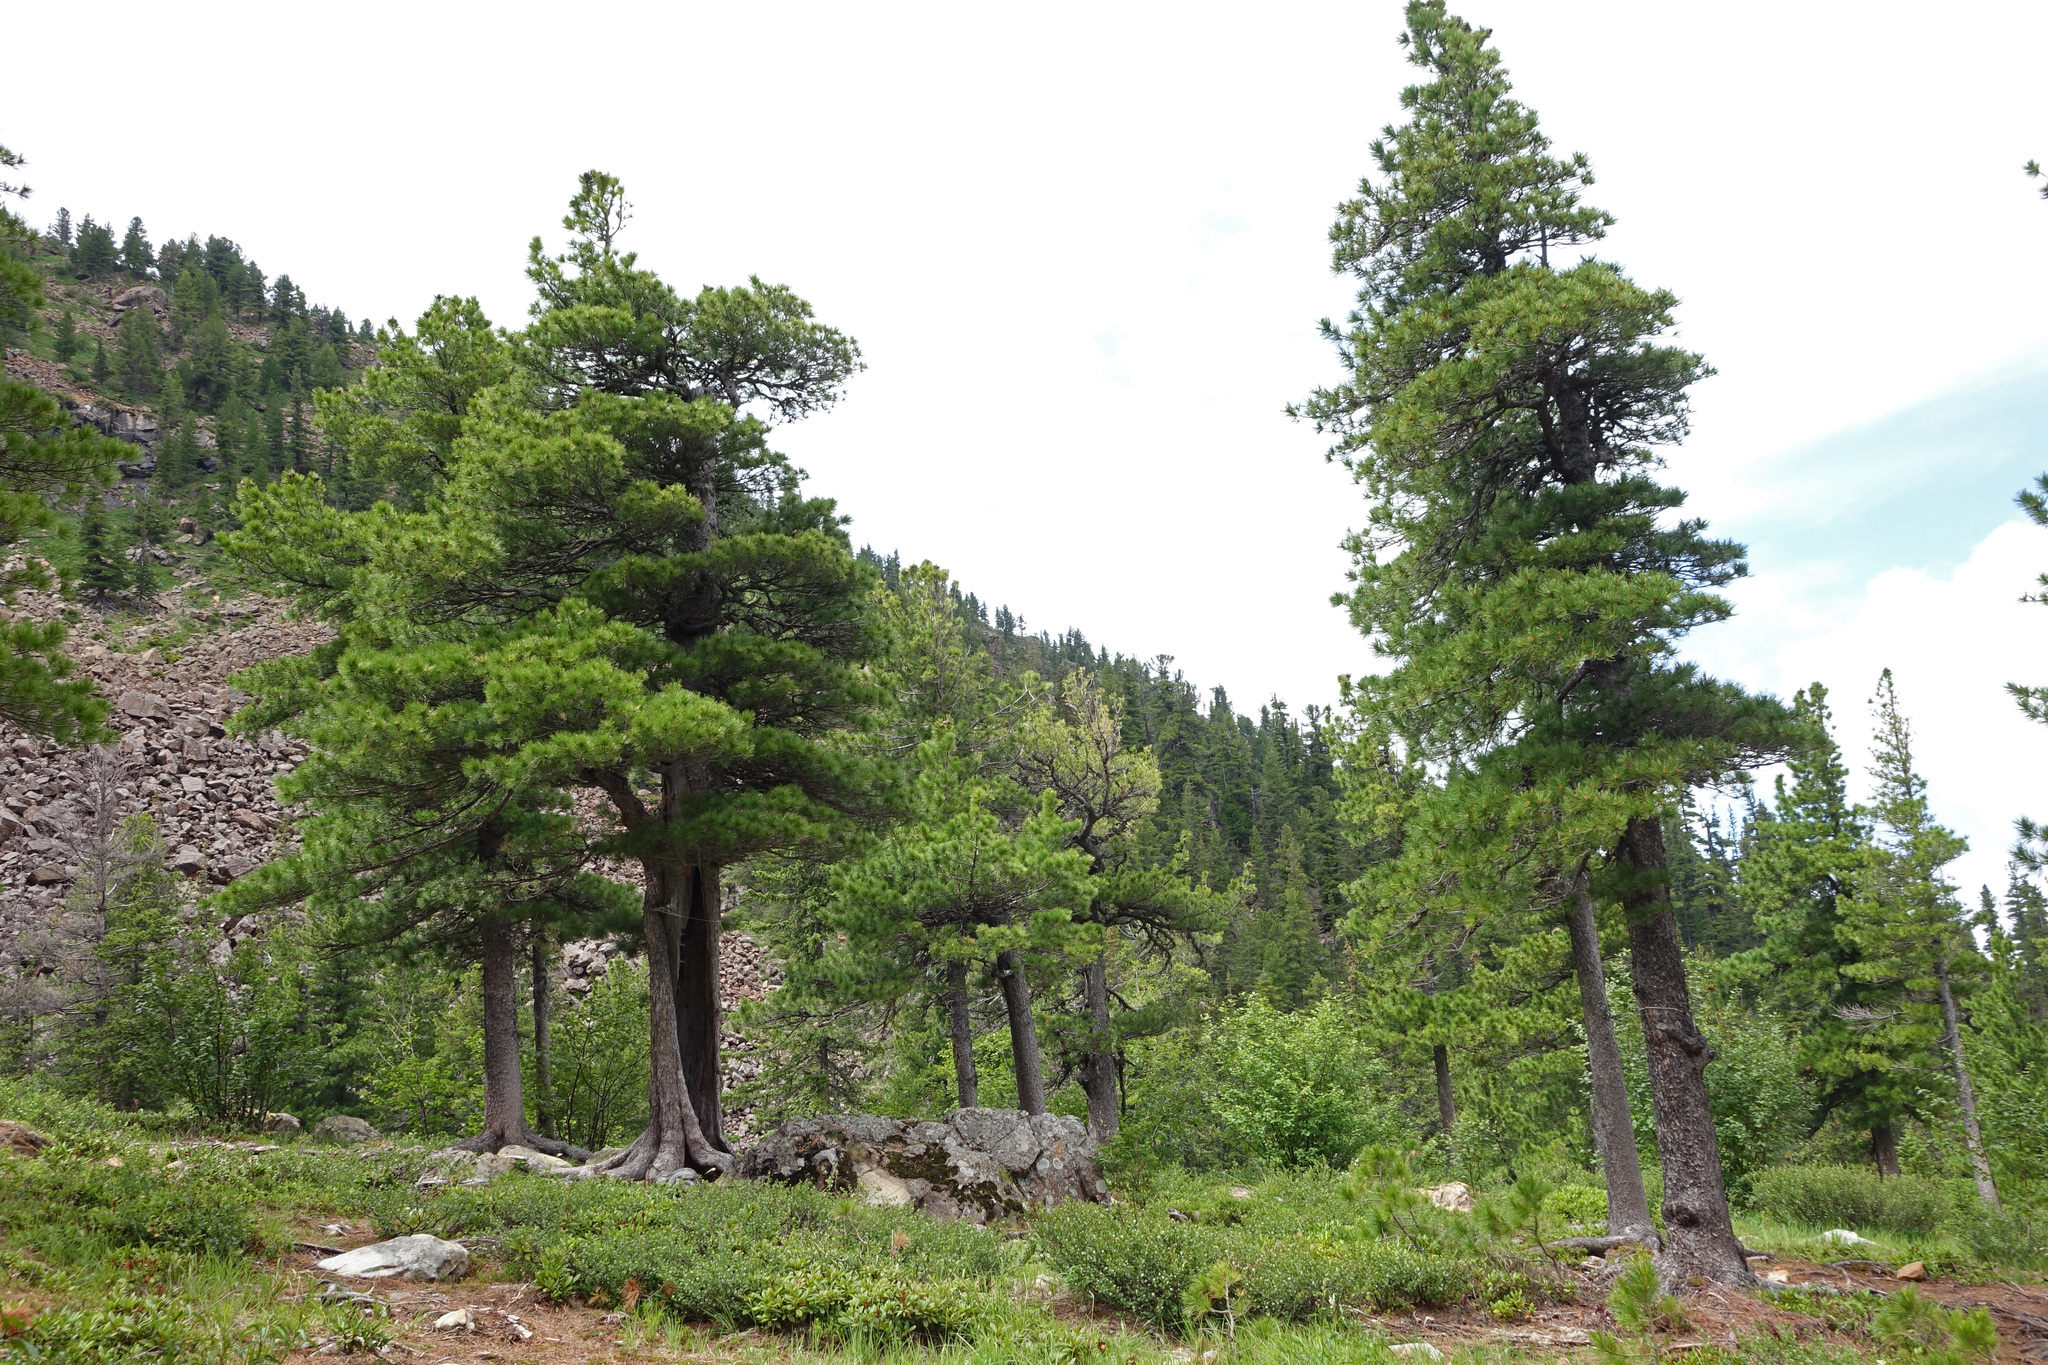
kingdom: Plantae
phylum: Tracheophyta
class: Pinopsida
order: Pinales
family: Pinaceae
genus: Pinus
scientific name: Pinus sibirica
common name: Siberian pine
